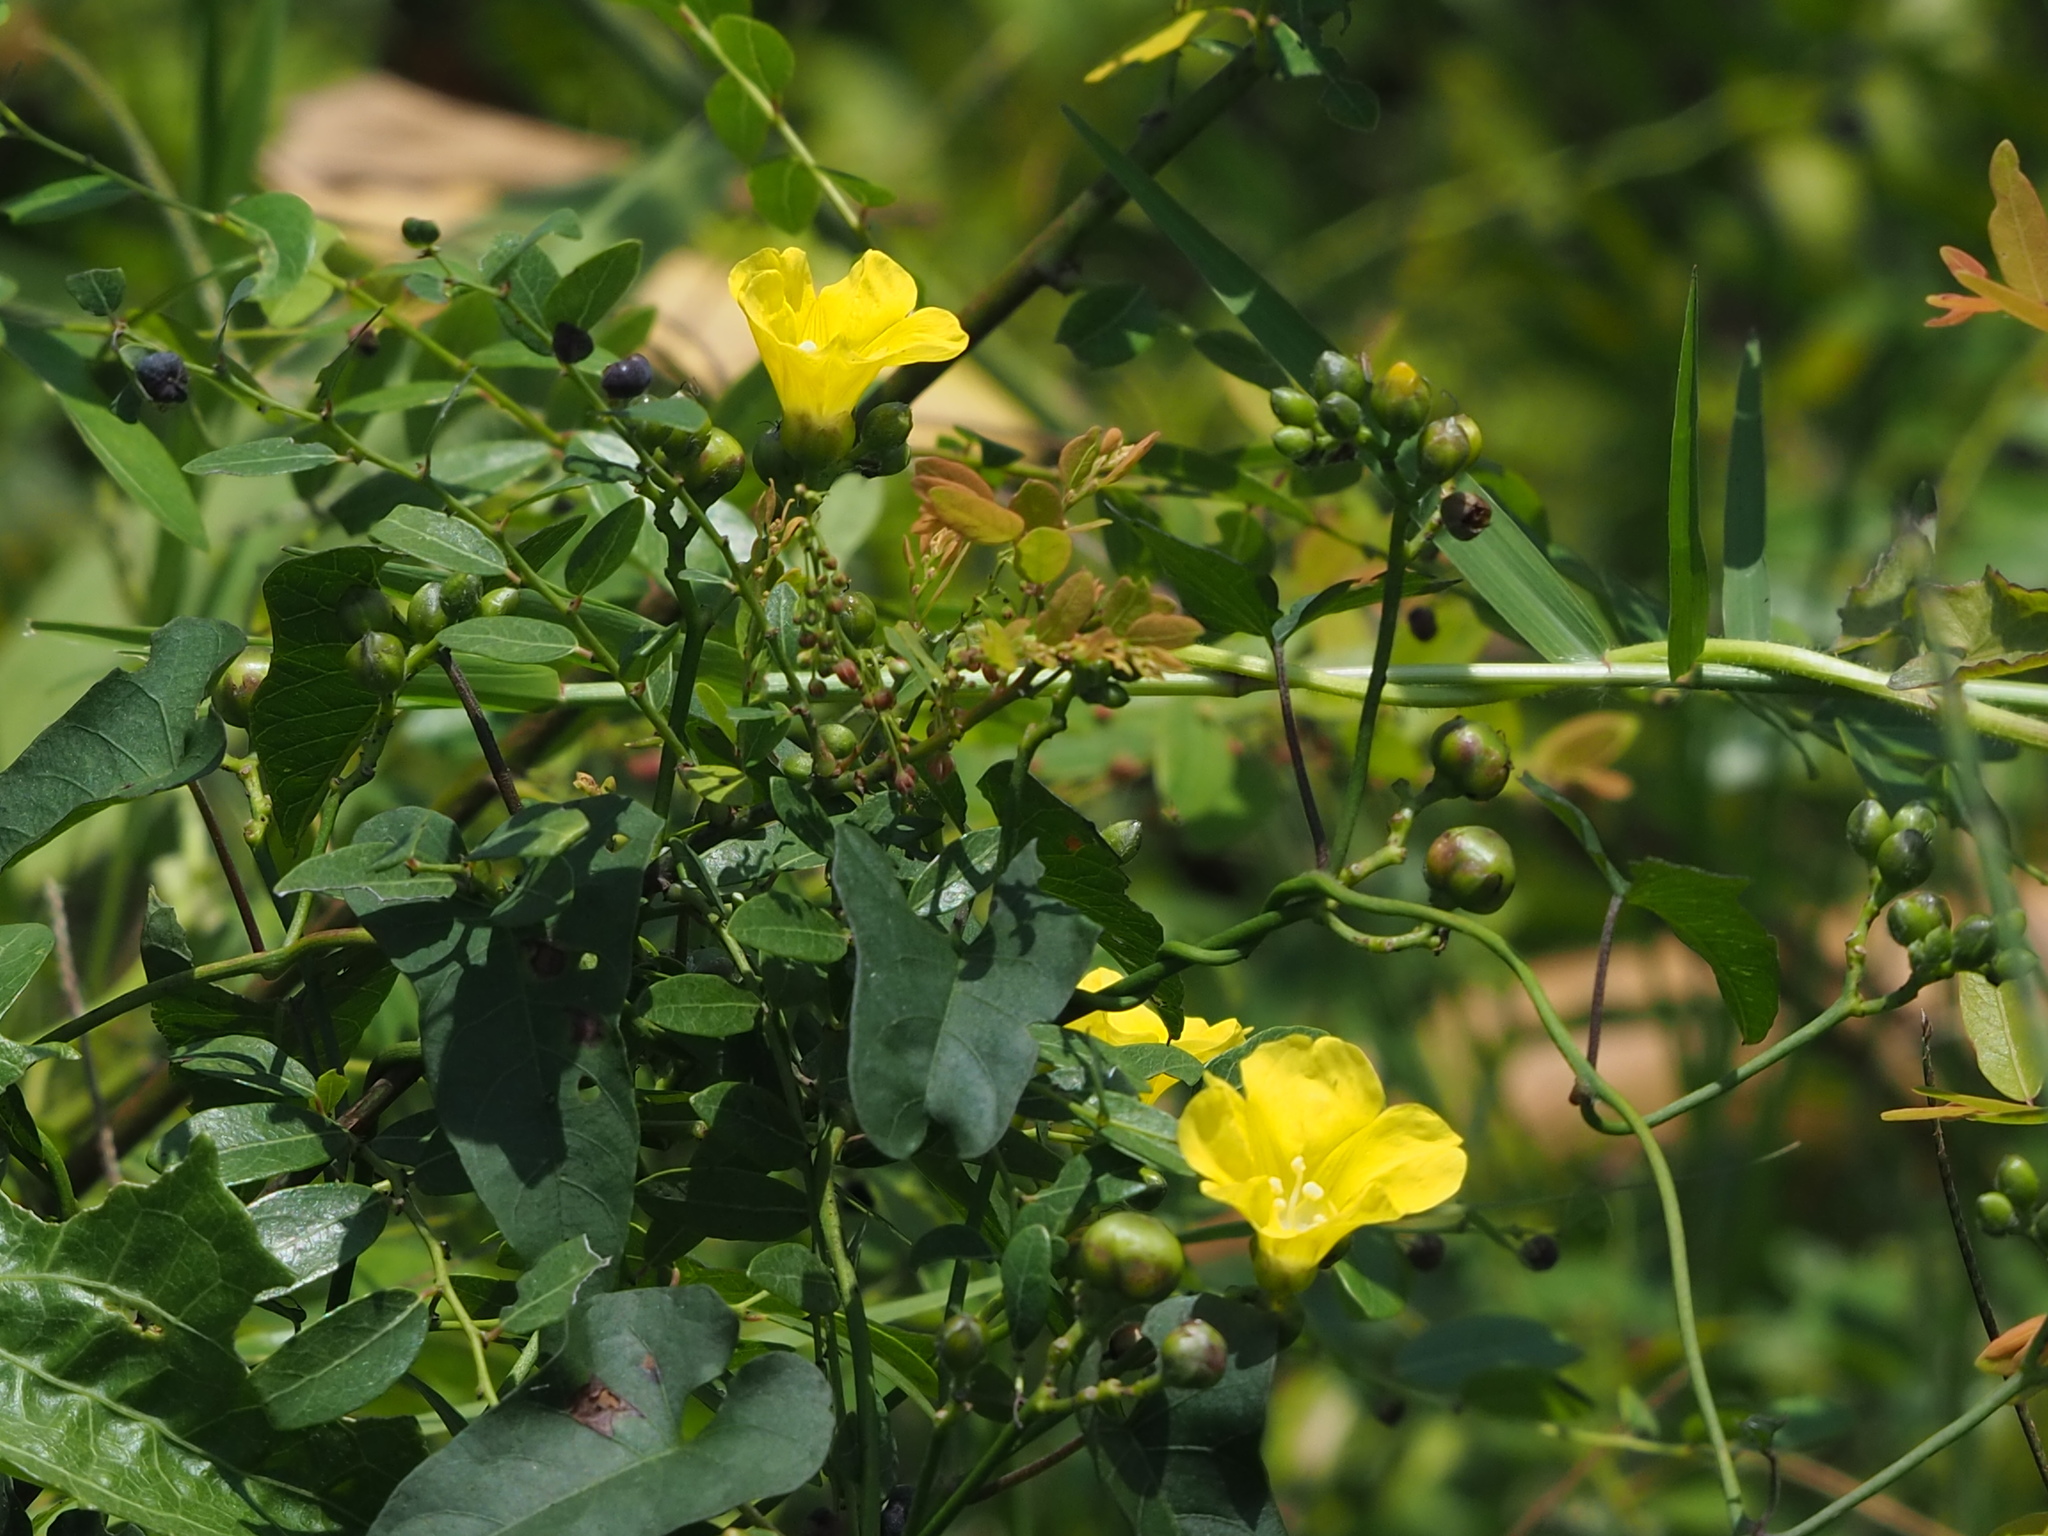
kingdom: Plantae
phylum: Tracheophyta
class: Magnoliopsida
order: Solanales
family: Convolvulaceae
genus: Merremia
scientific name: Merremia gemella
